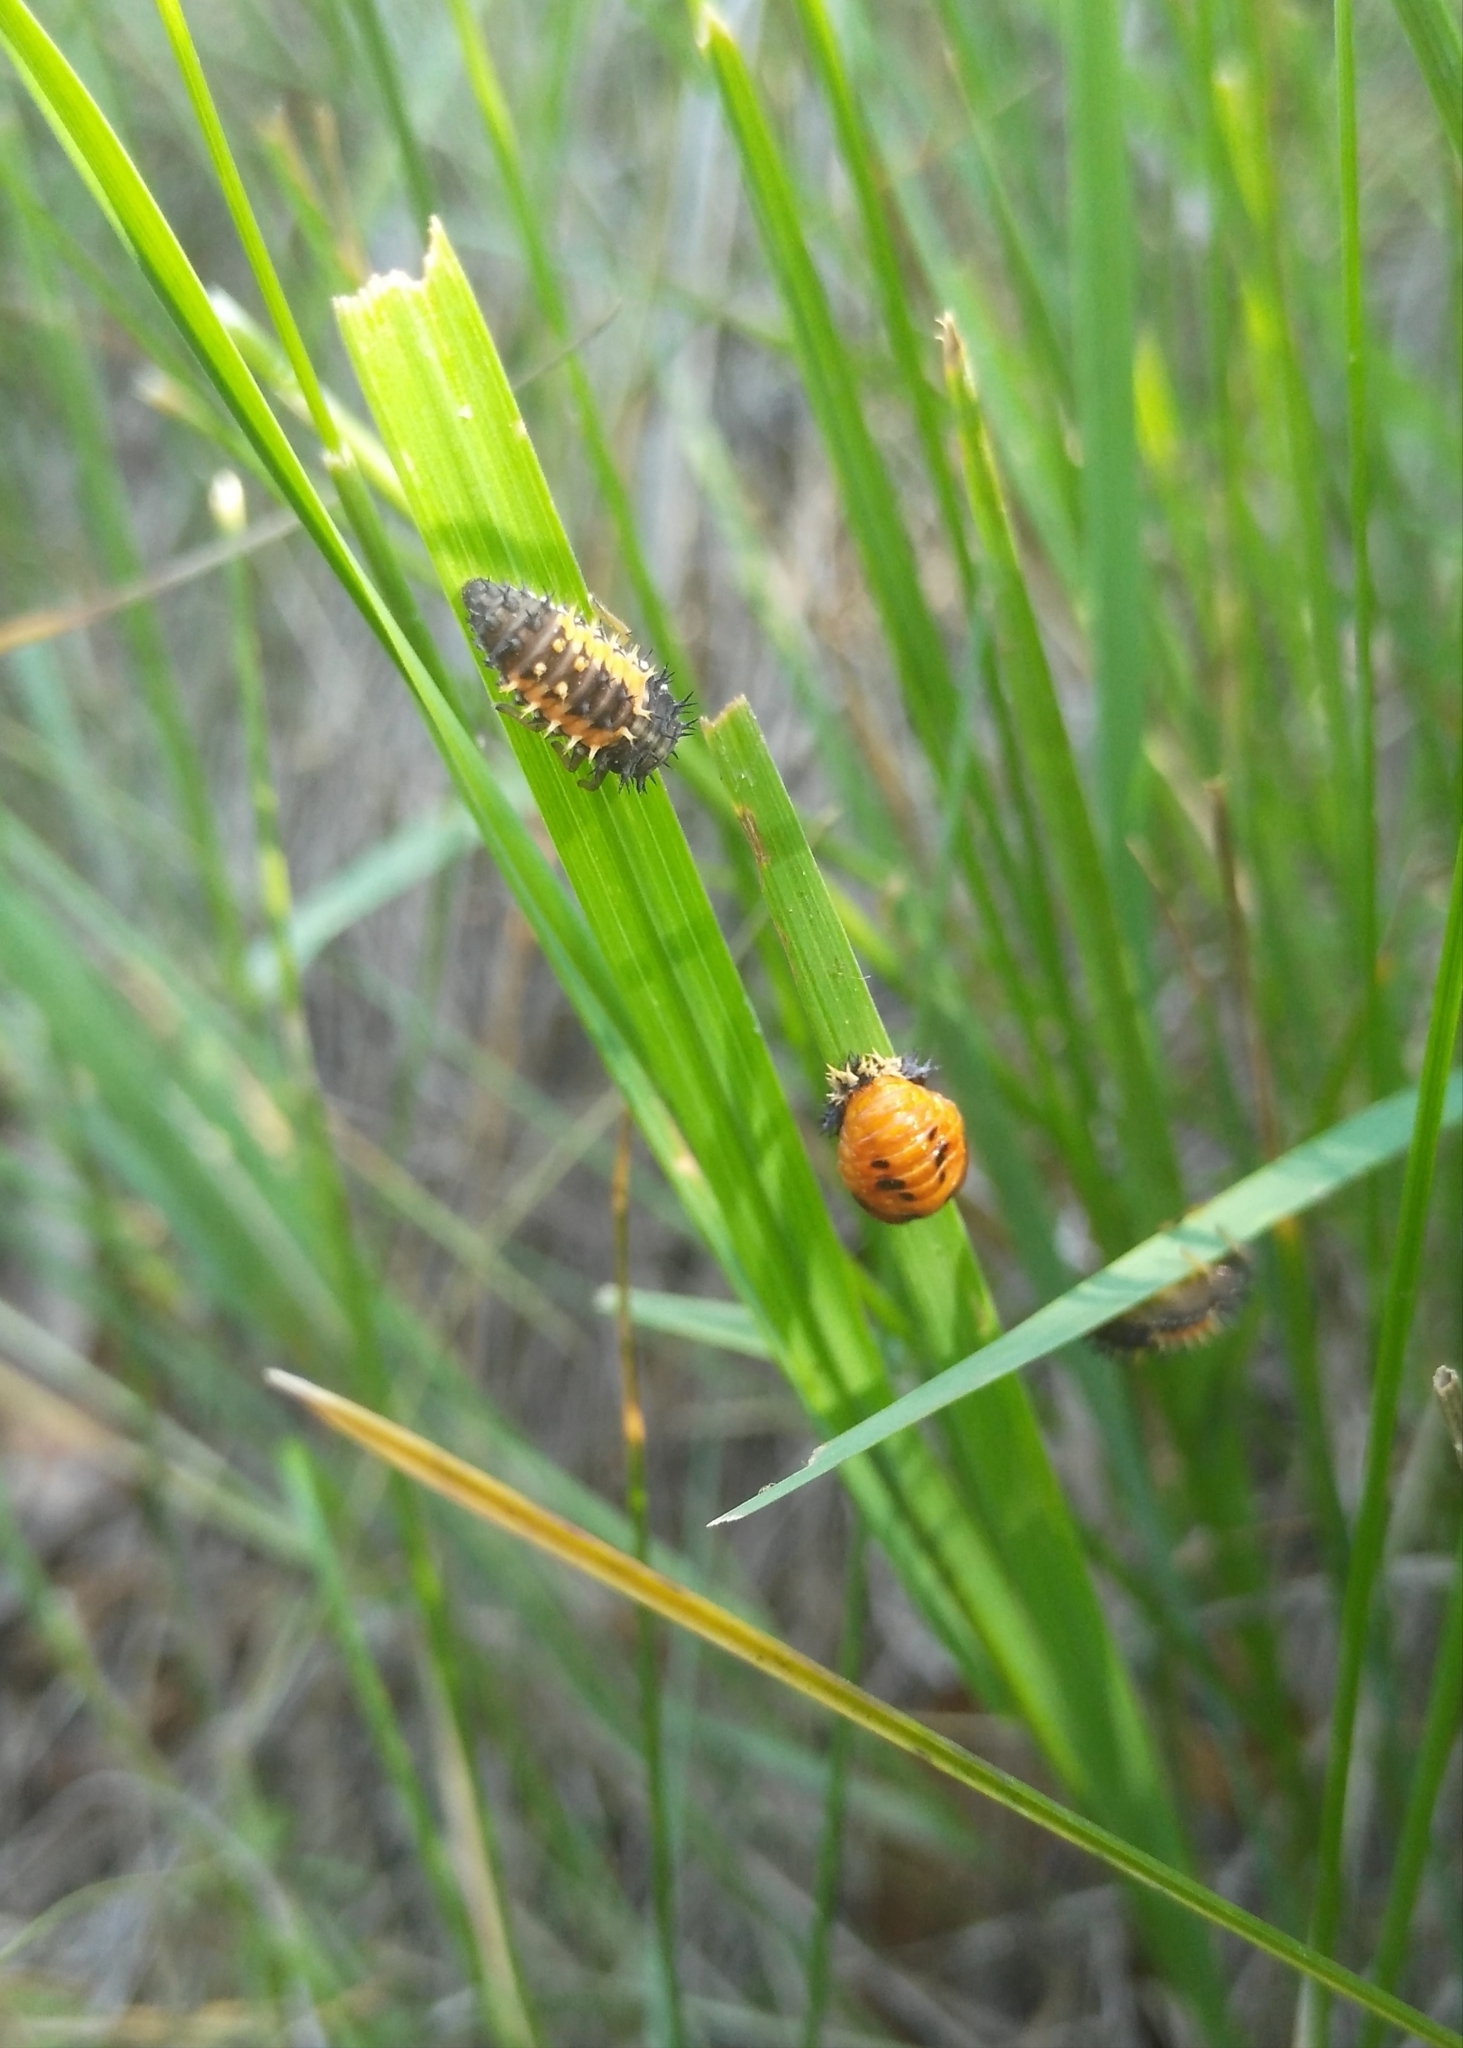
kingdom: Animalia
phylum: Arthropoda
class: Insecta
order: Coleoptera
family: Coccinellidae
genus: Harmonia
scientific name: Harmonia axyridis
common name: Harlequin ladybird
